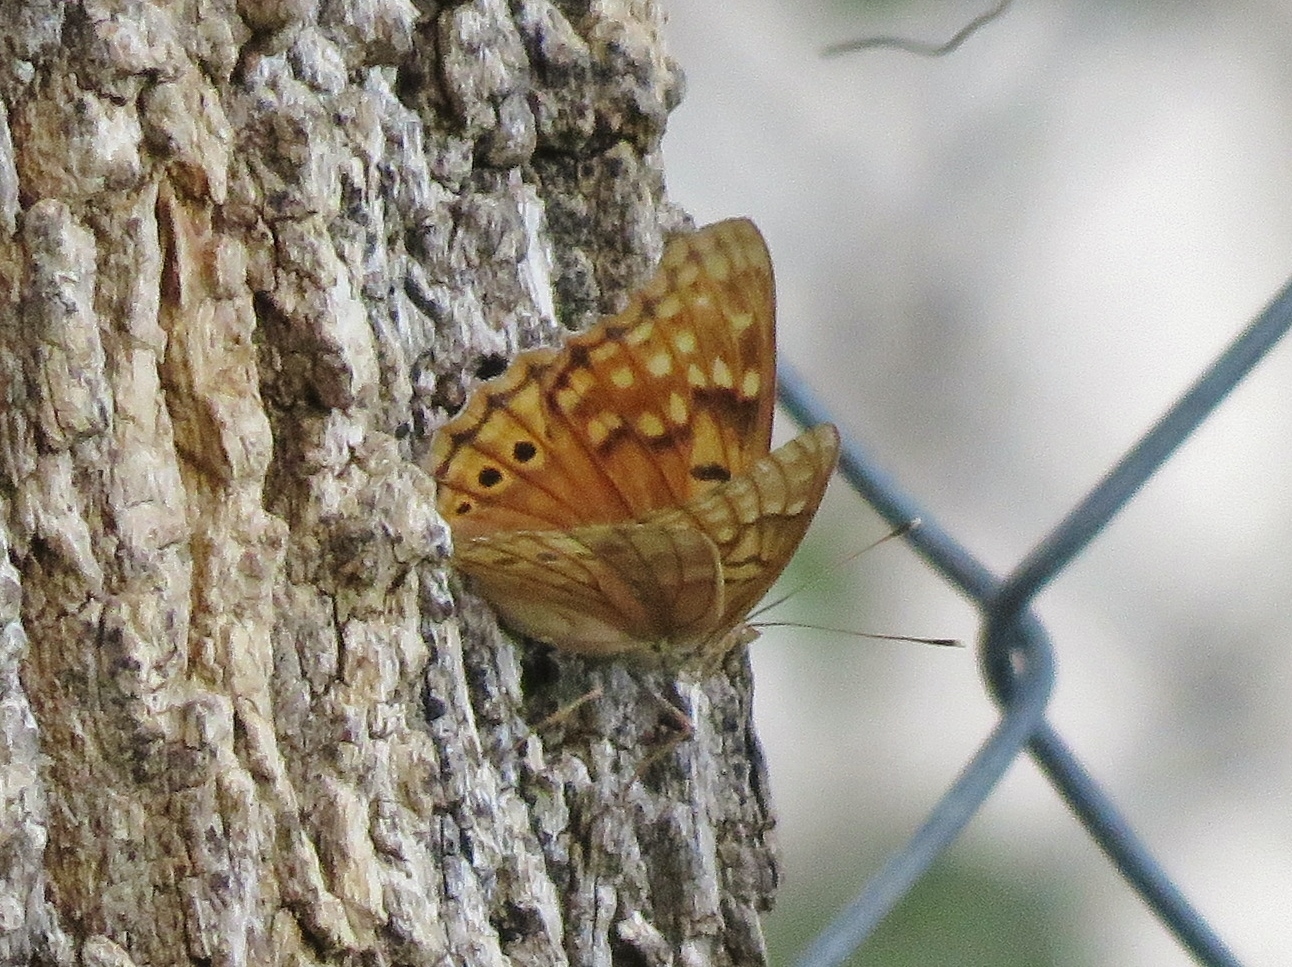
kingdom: Animalia
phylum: Arthropoda
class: Insecta
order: Lepidoptera
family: Nymphalidae
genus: Asterocampa
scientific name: Asterocampa clyton
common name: Tawny emperor
